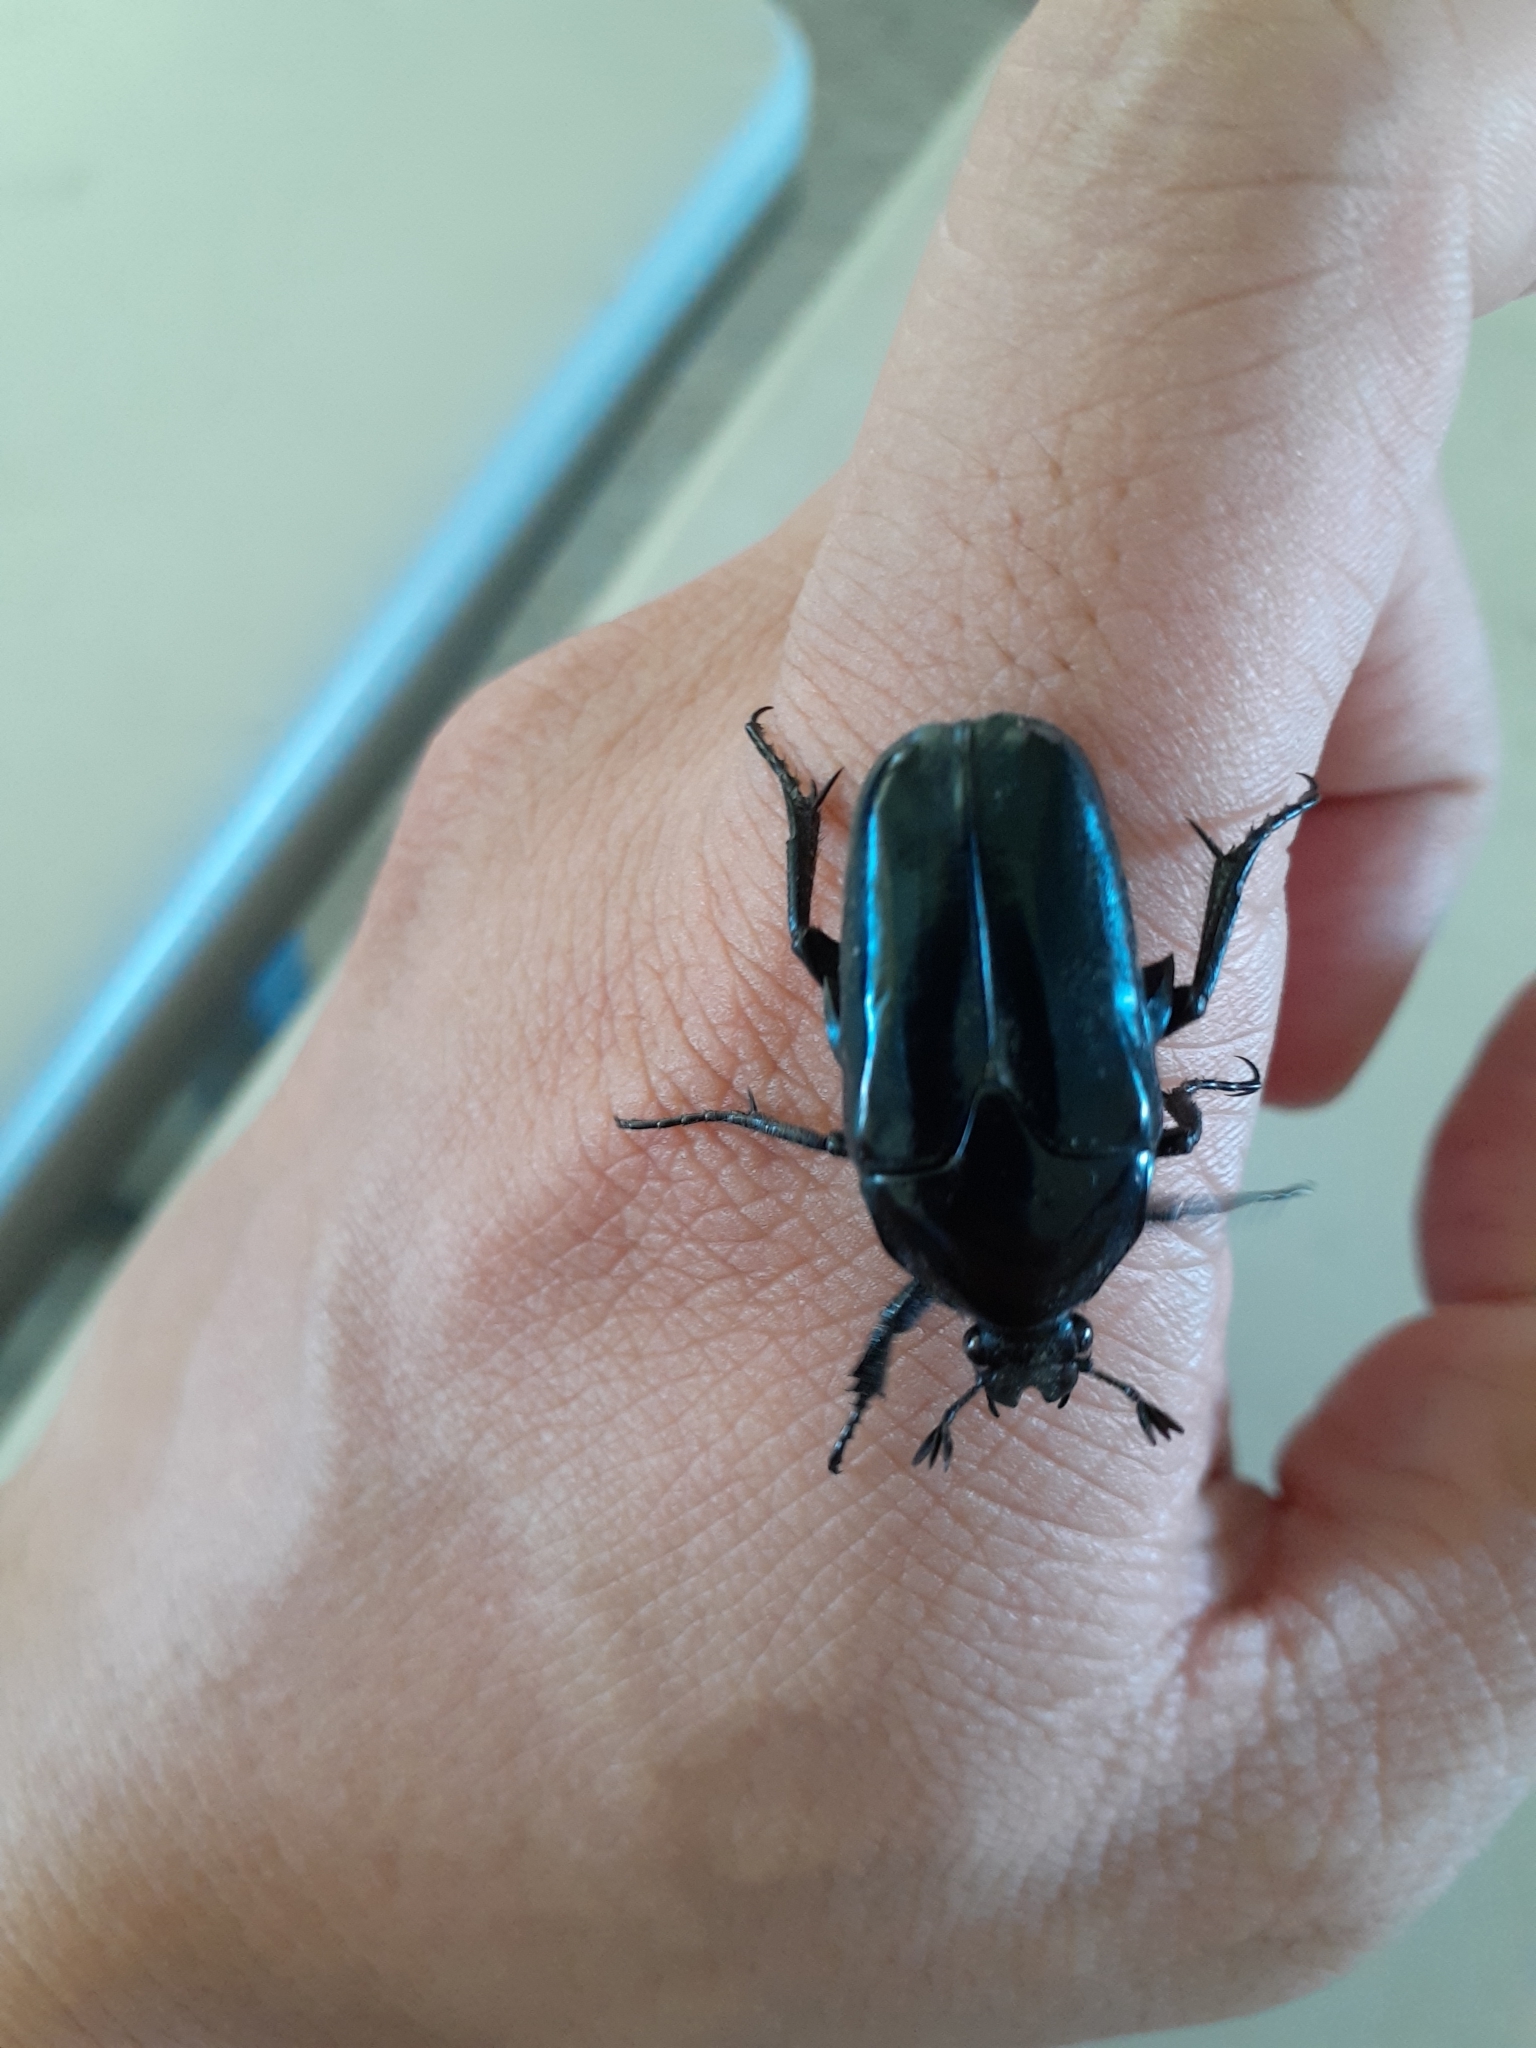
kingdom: Animalia
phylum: Arthropoda
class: Insecta
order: Coleoptera
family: Scarabaeidae
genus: Macronota
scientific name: Macronota shangaicus
